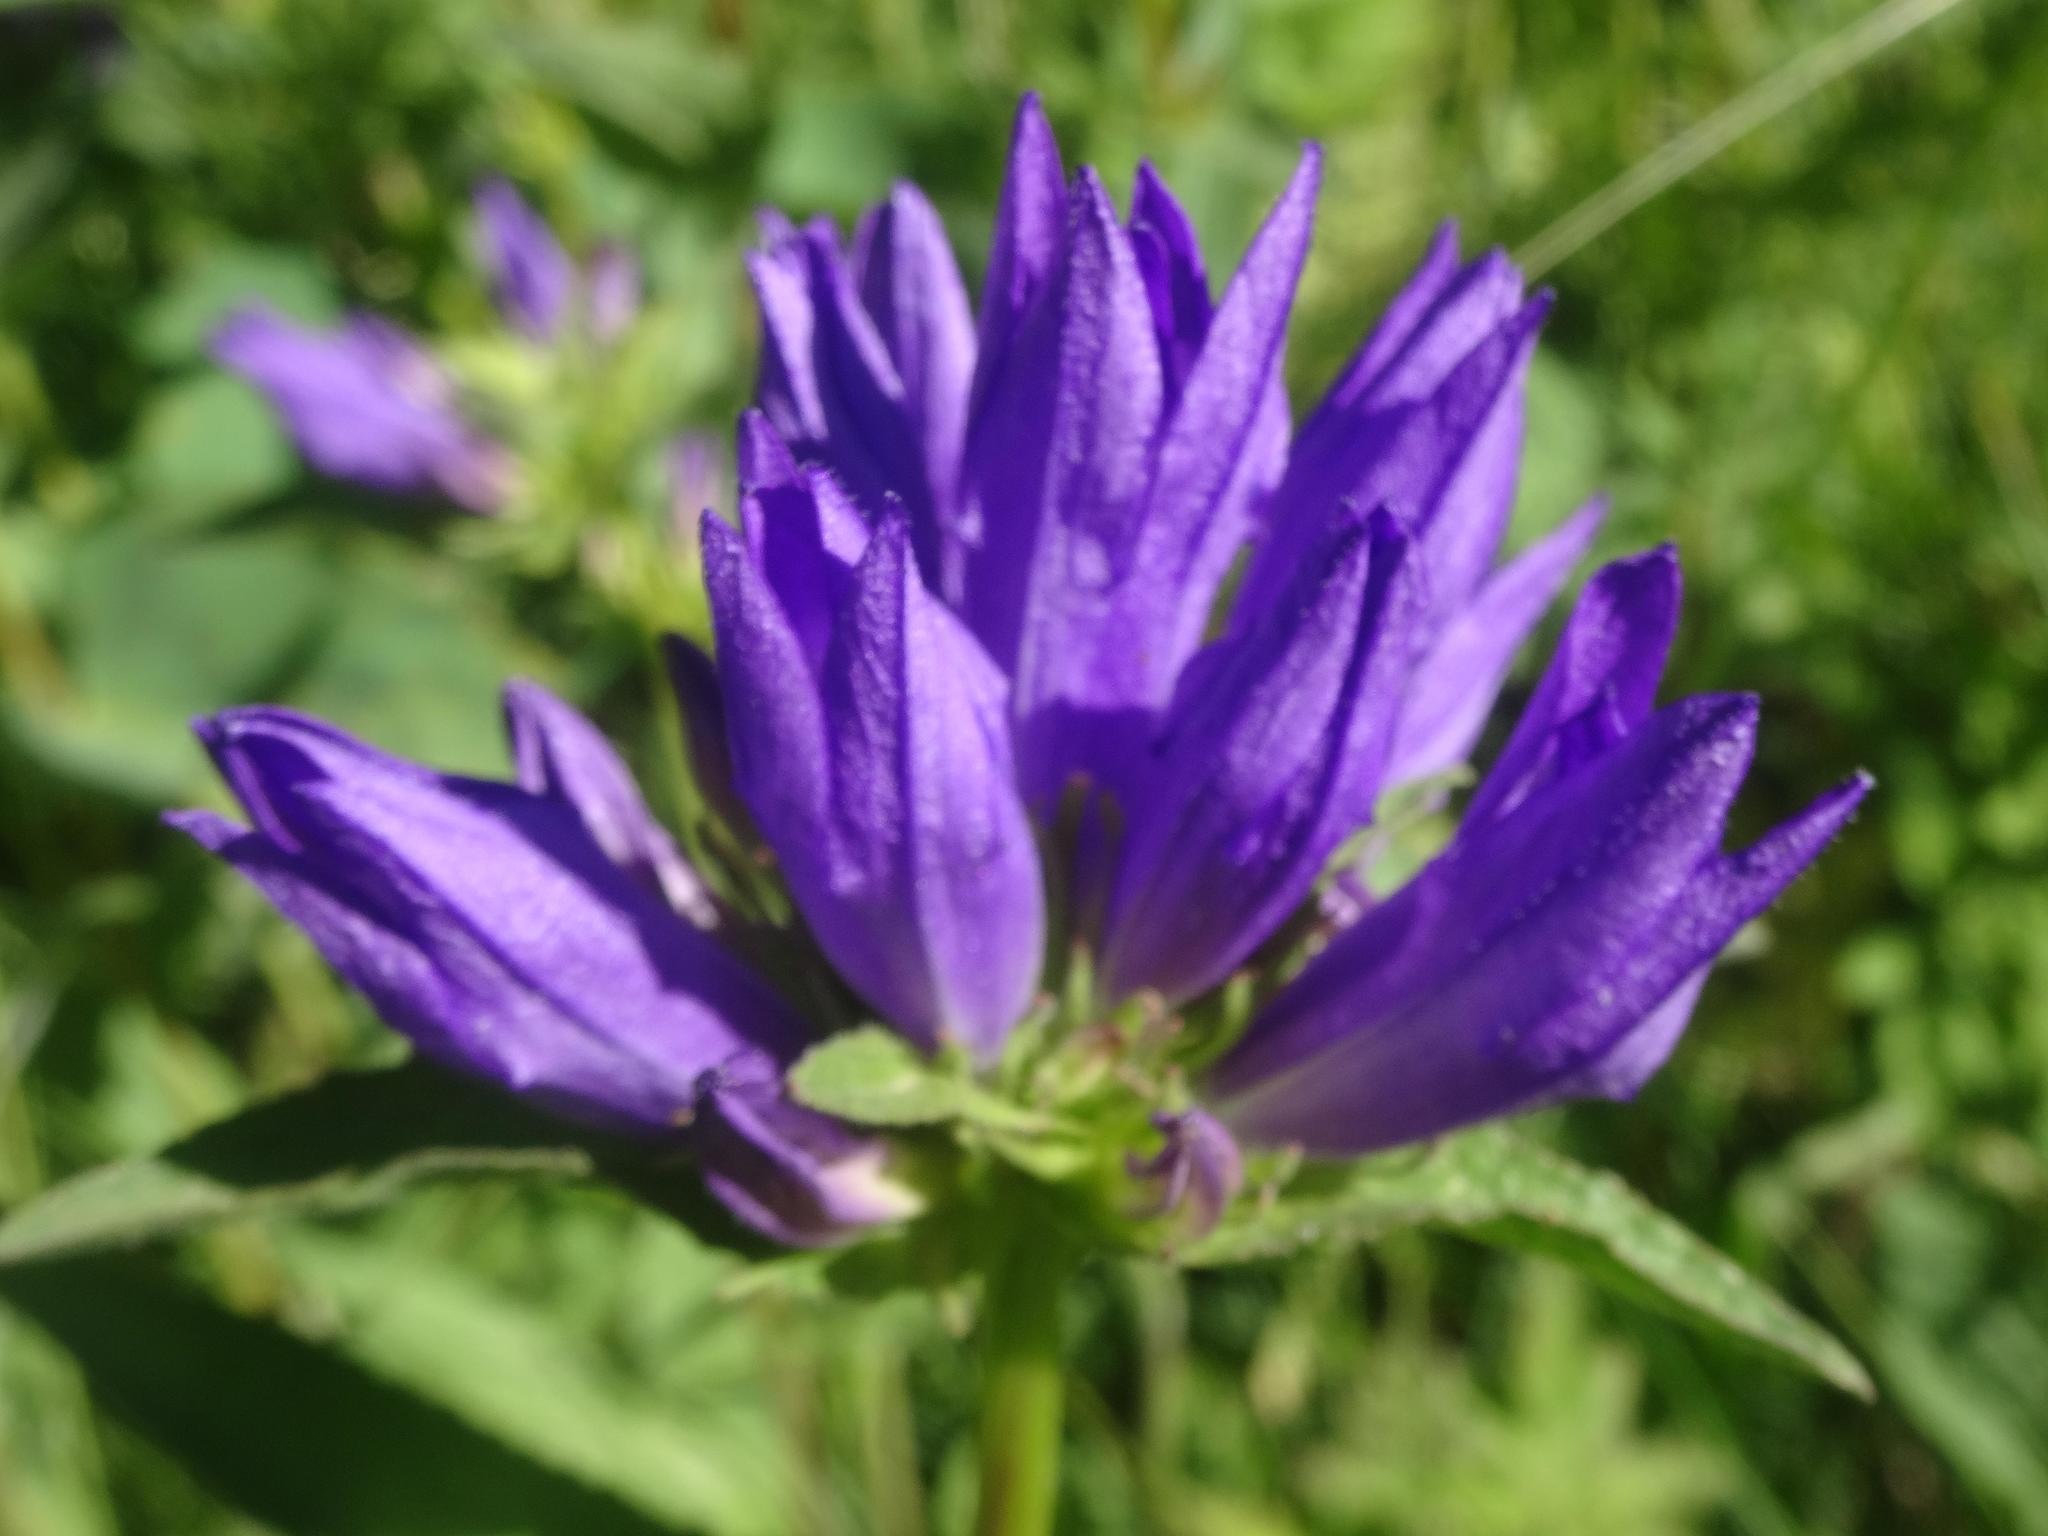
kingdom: Plantae
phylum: Tracheophyta
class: Magnoliopsida
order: Asterales
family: Campanulaceae
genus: Campanula
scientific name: Campanula glomerata
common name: Clustered bellflower
